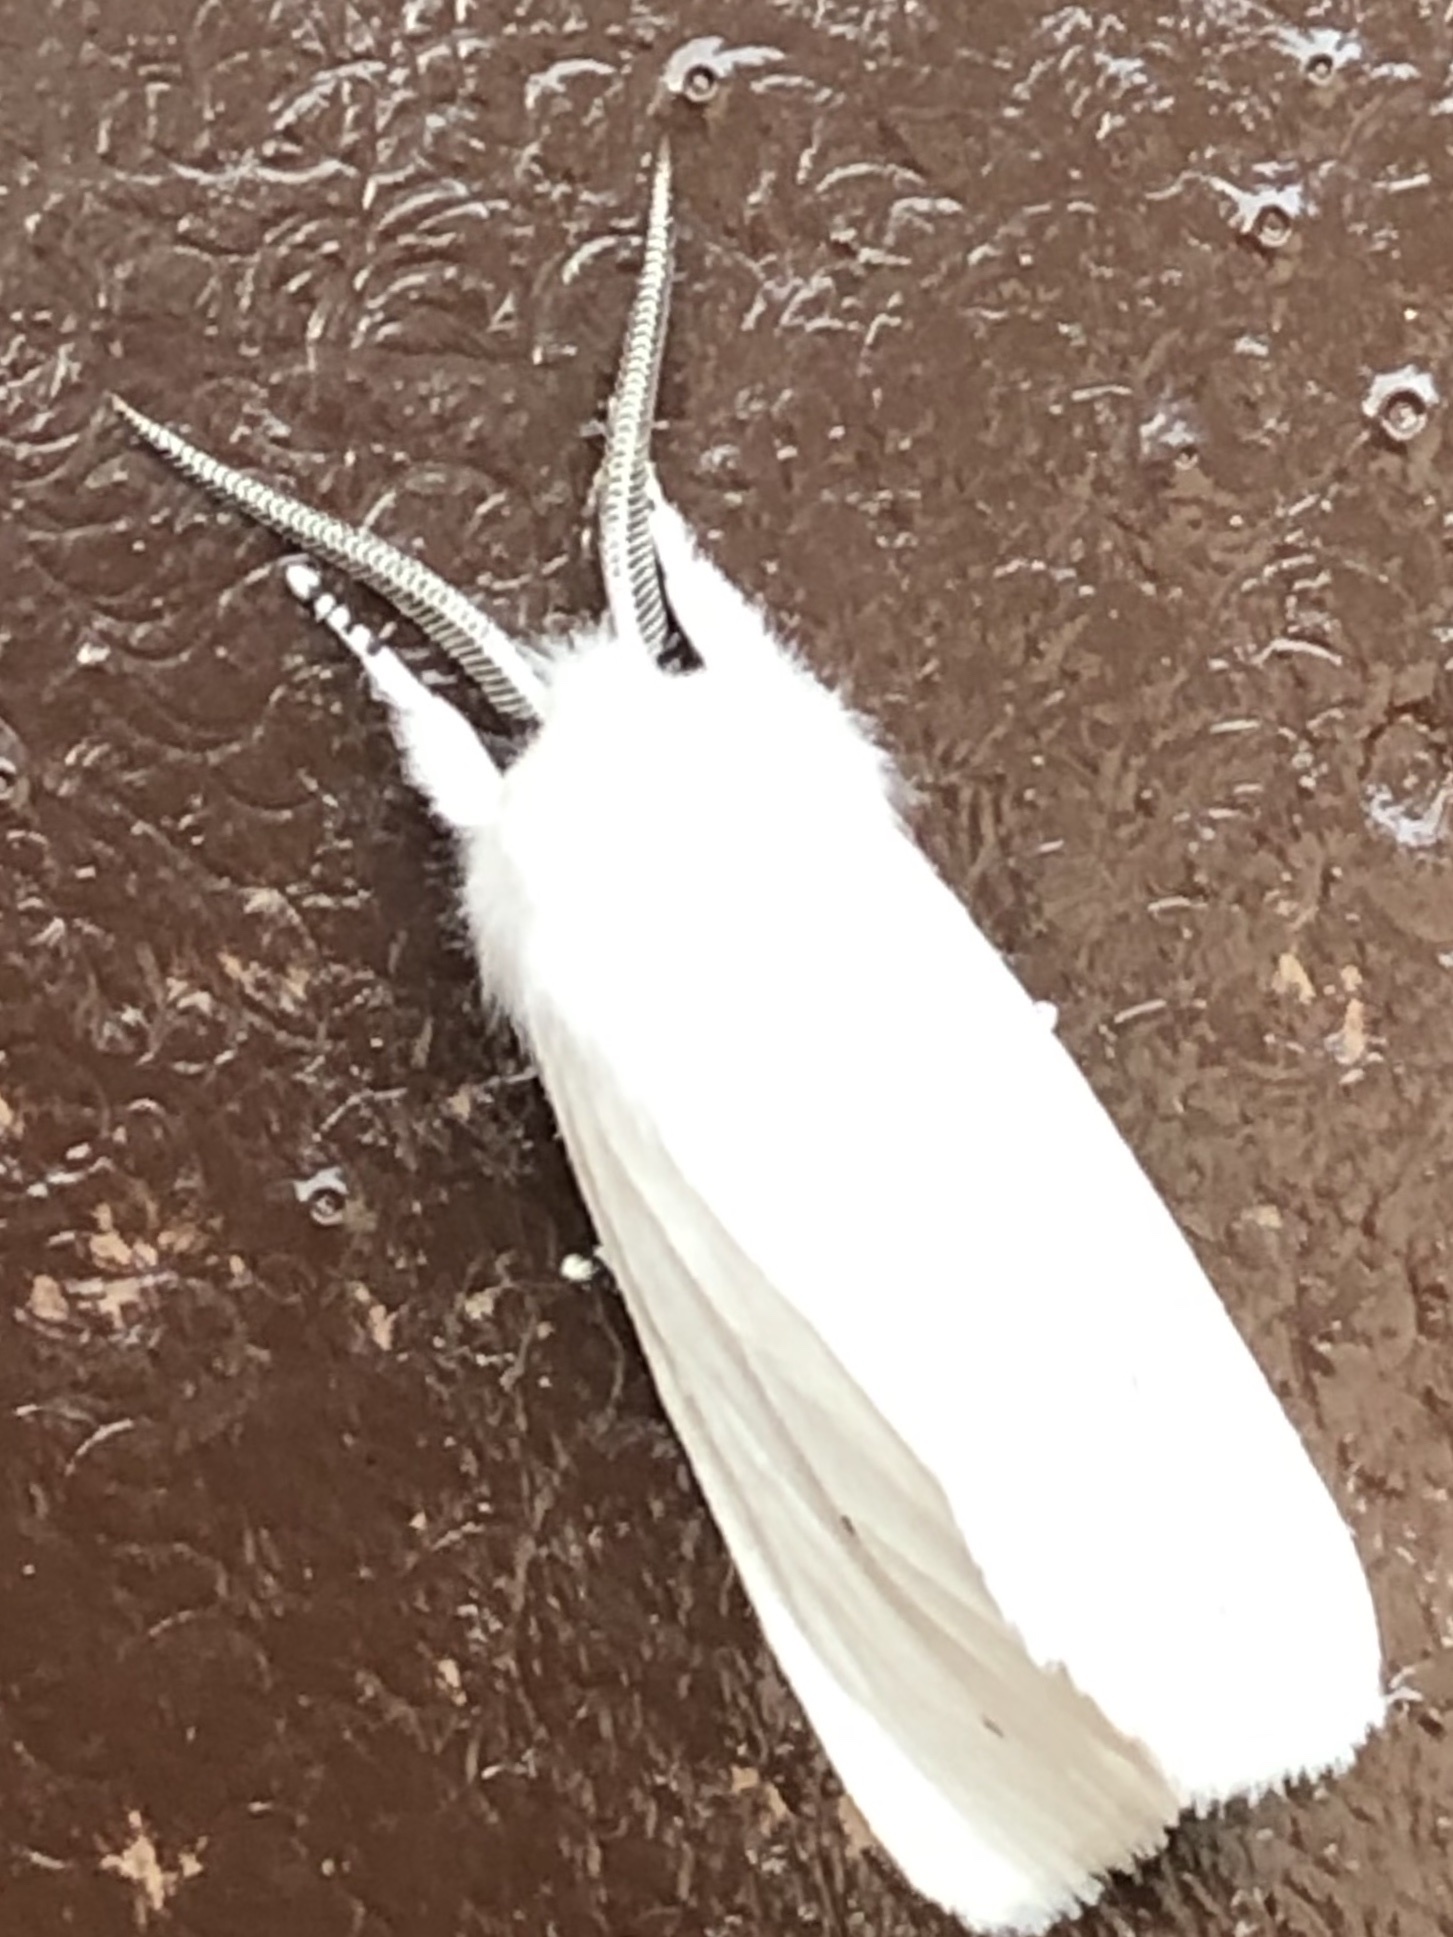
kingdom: Animalia
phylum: Arthropoda
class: Insecta
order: Lepidoptera
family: Erebidae
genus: Spilosoma
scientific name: Spilosoma virginica
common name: Virginia tiger moth
